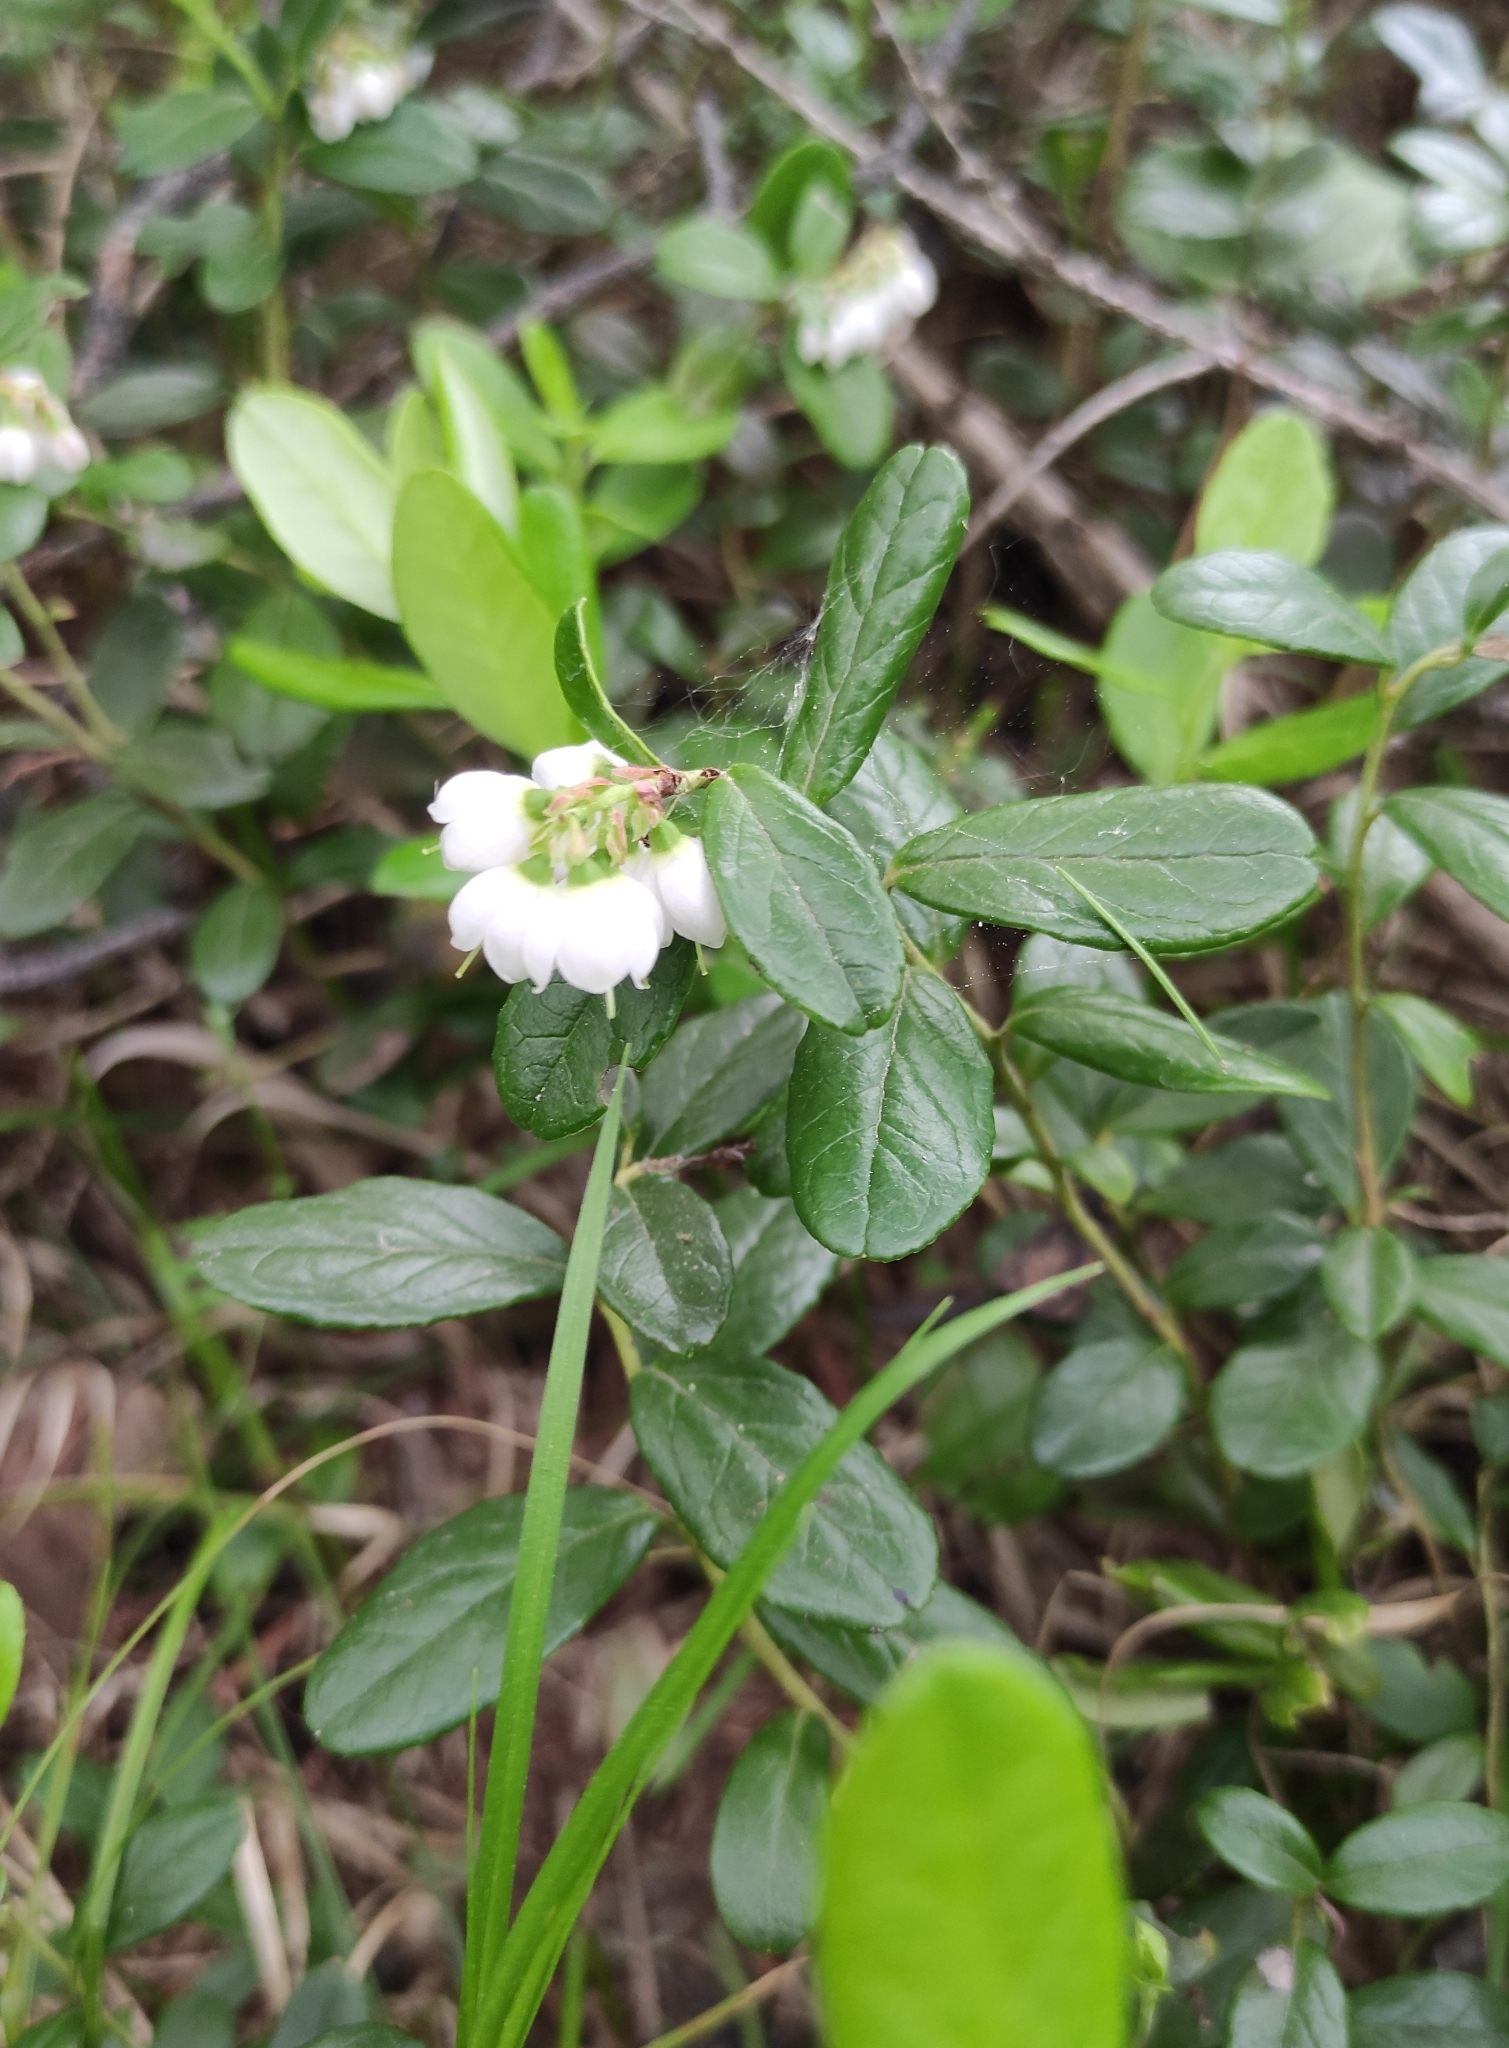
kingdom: Plantae
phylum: Tracheophyta
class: Magnoliopsida
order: Ericales
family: Ericaceae
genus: Vaccinium
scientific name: Vaccinium vitis-idaea
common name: Cowberry
